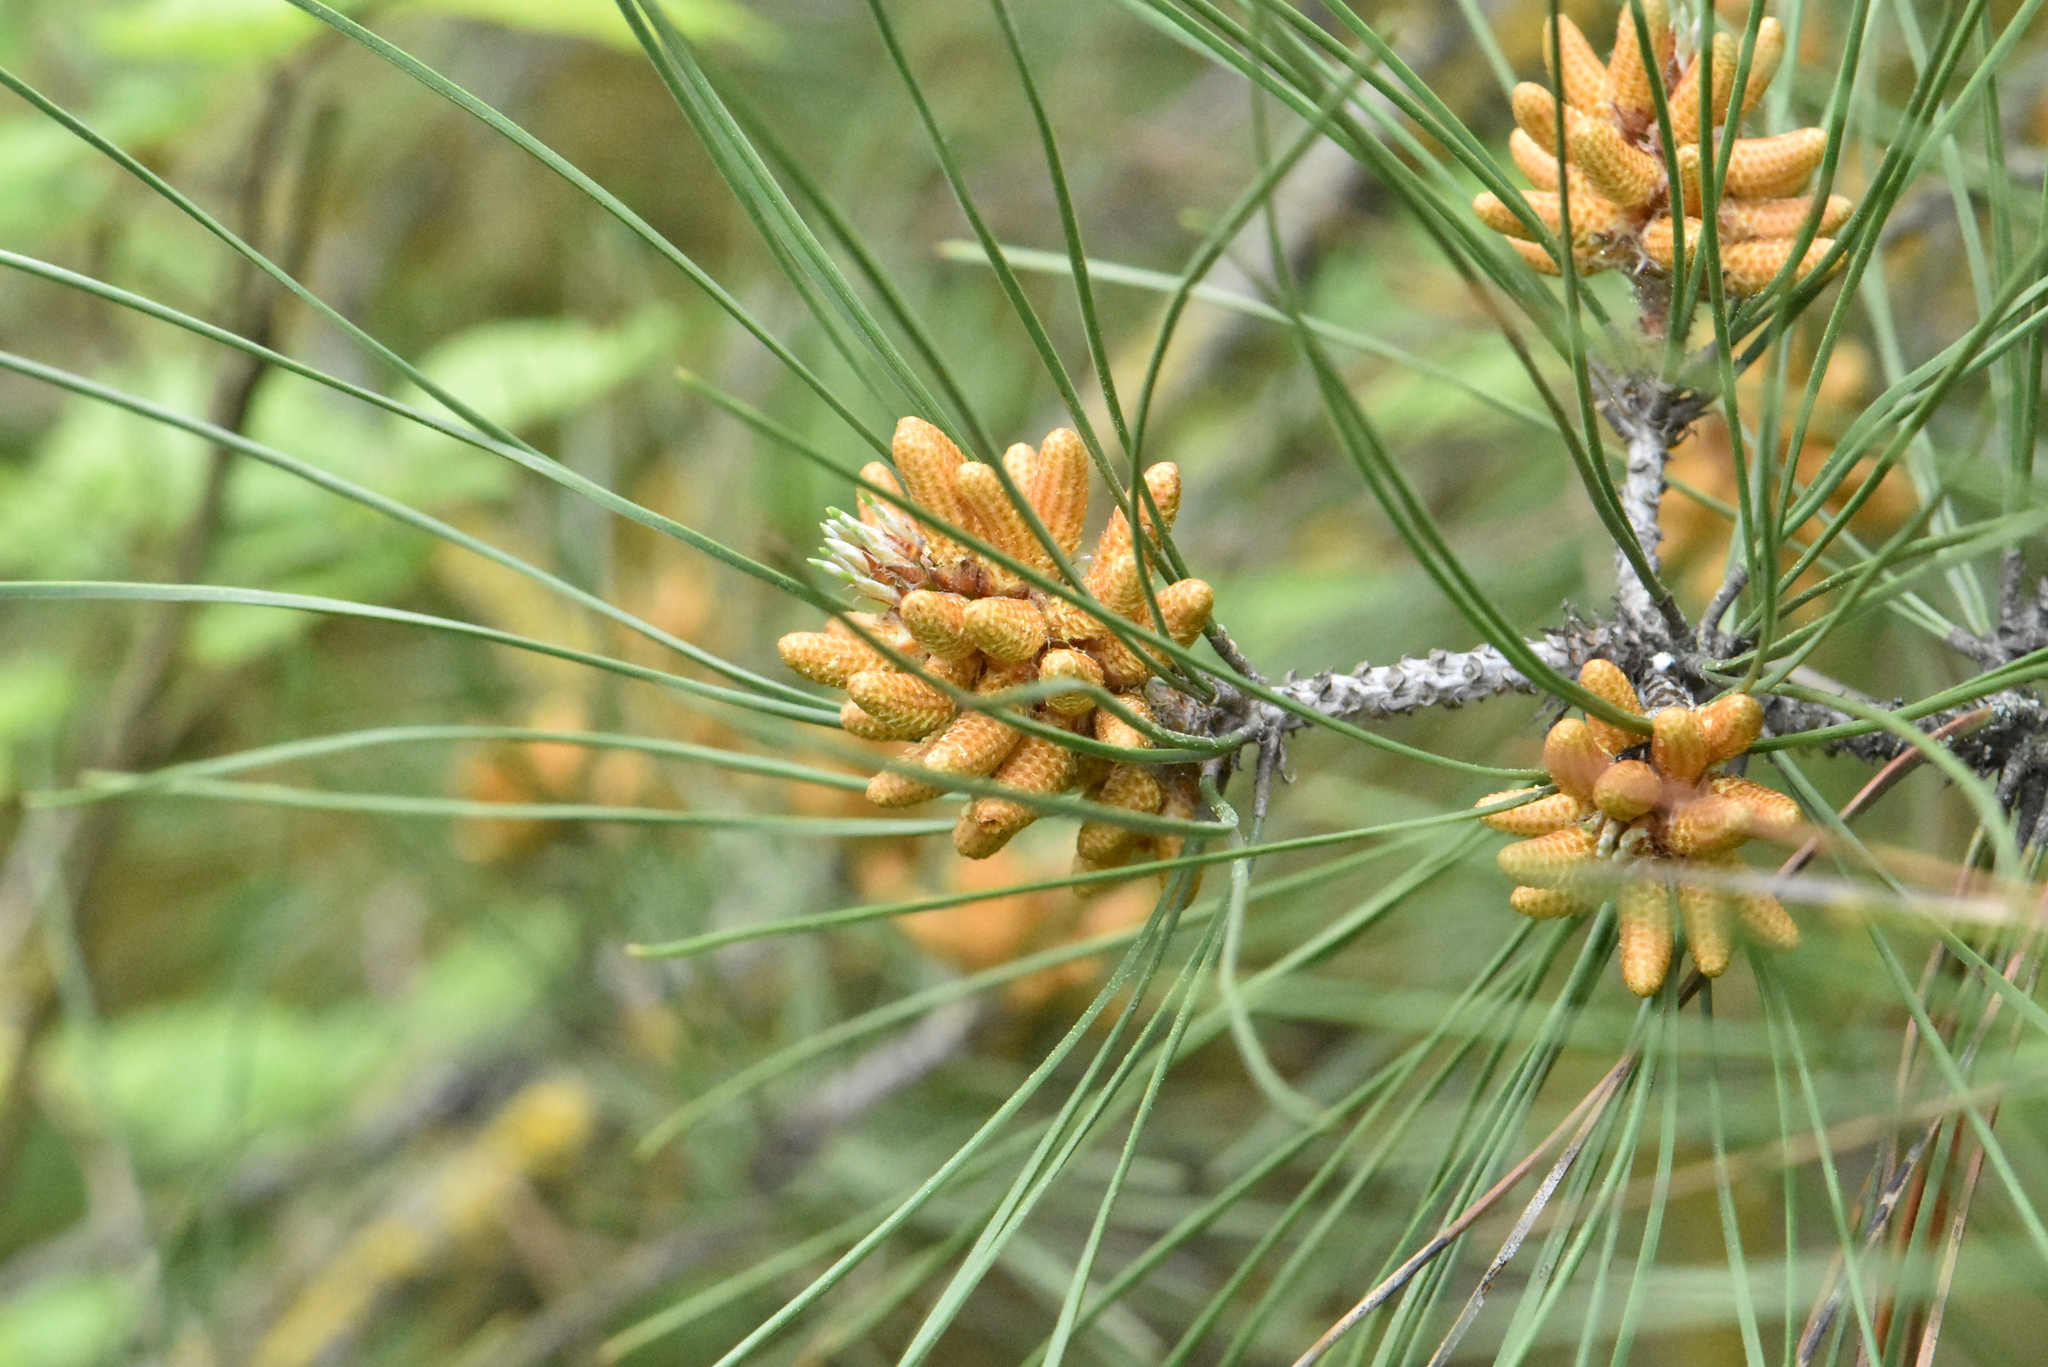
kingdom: Plantae
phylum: Tracheophyta
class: Pinopsida
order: Pinales
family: Pinaceae
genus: Pinus
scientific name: Pinus sylvestris
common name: Scots pine
